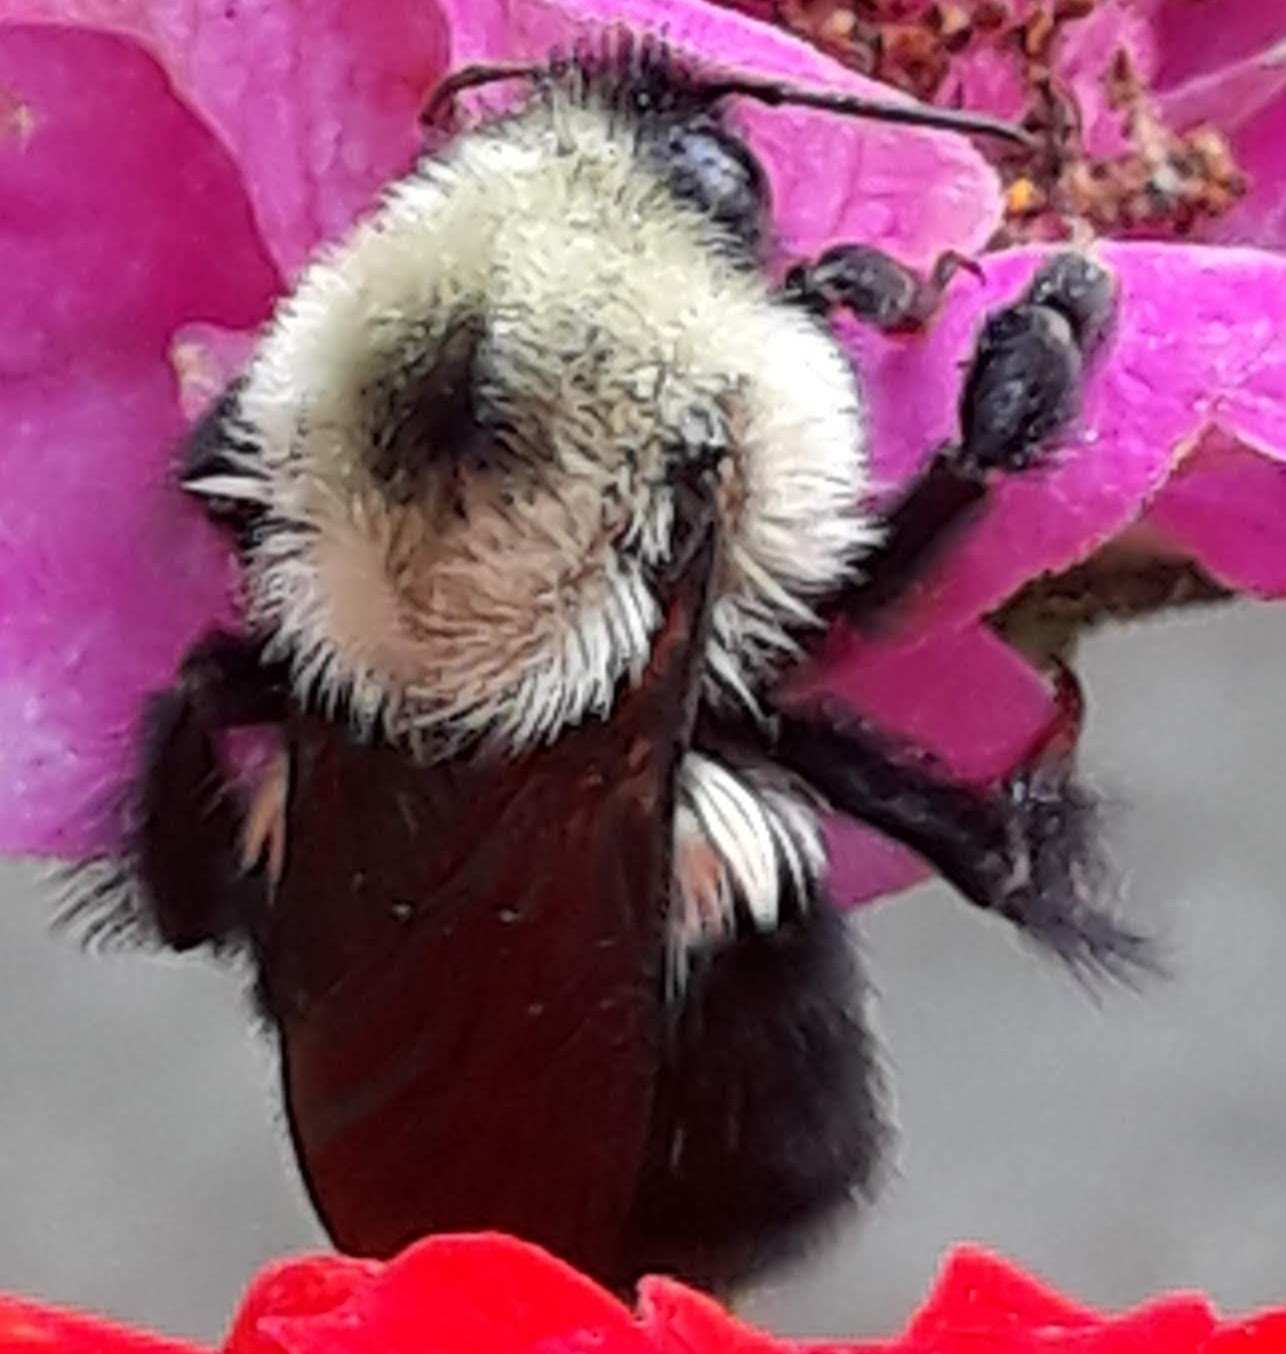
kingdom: Animalia
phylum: Arthropoda
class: Insecta
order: Hymenoptera
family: Apidae
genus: Bombus
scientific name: Bombus bimaculatus
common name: Two-spotted bumble bee
